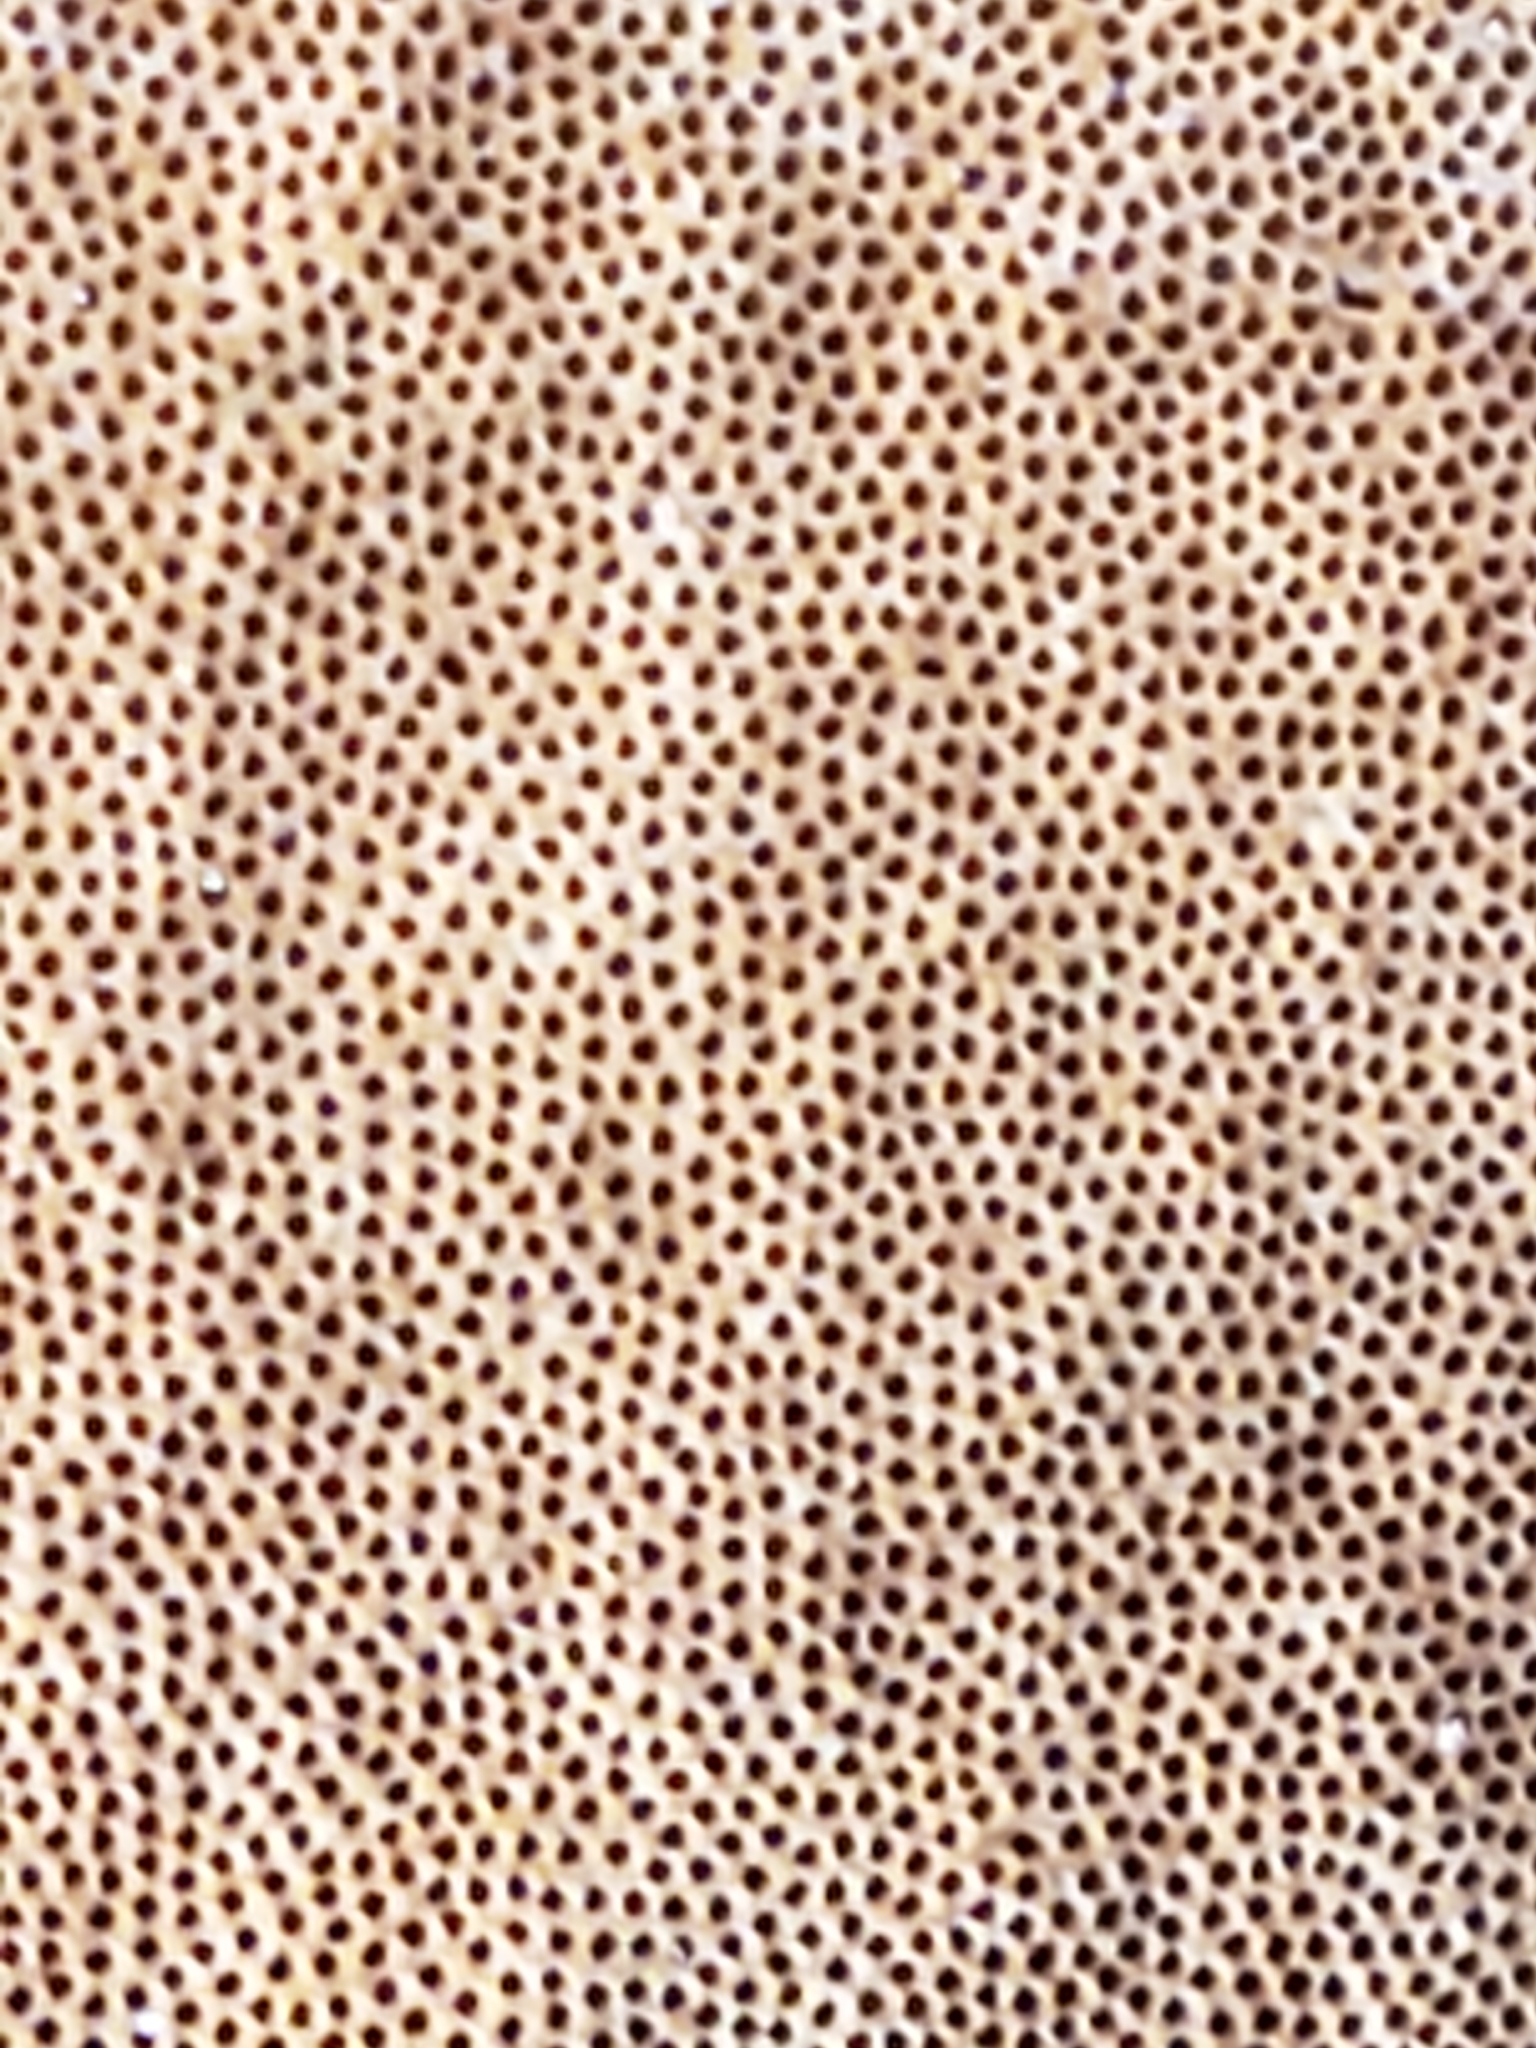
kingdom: Fungi
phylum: Basidiomycota
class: Agaricomycetes
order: Hymenochaetales
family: Hymenochaetaceae
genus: Phellinus
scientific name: Phellinus robiniae
